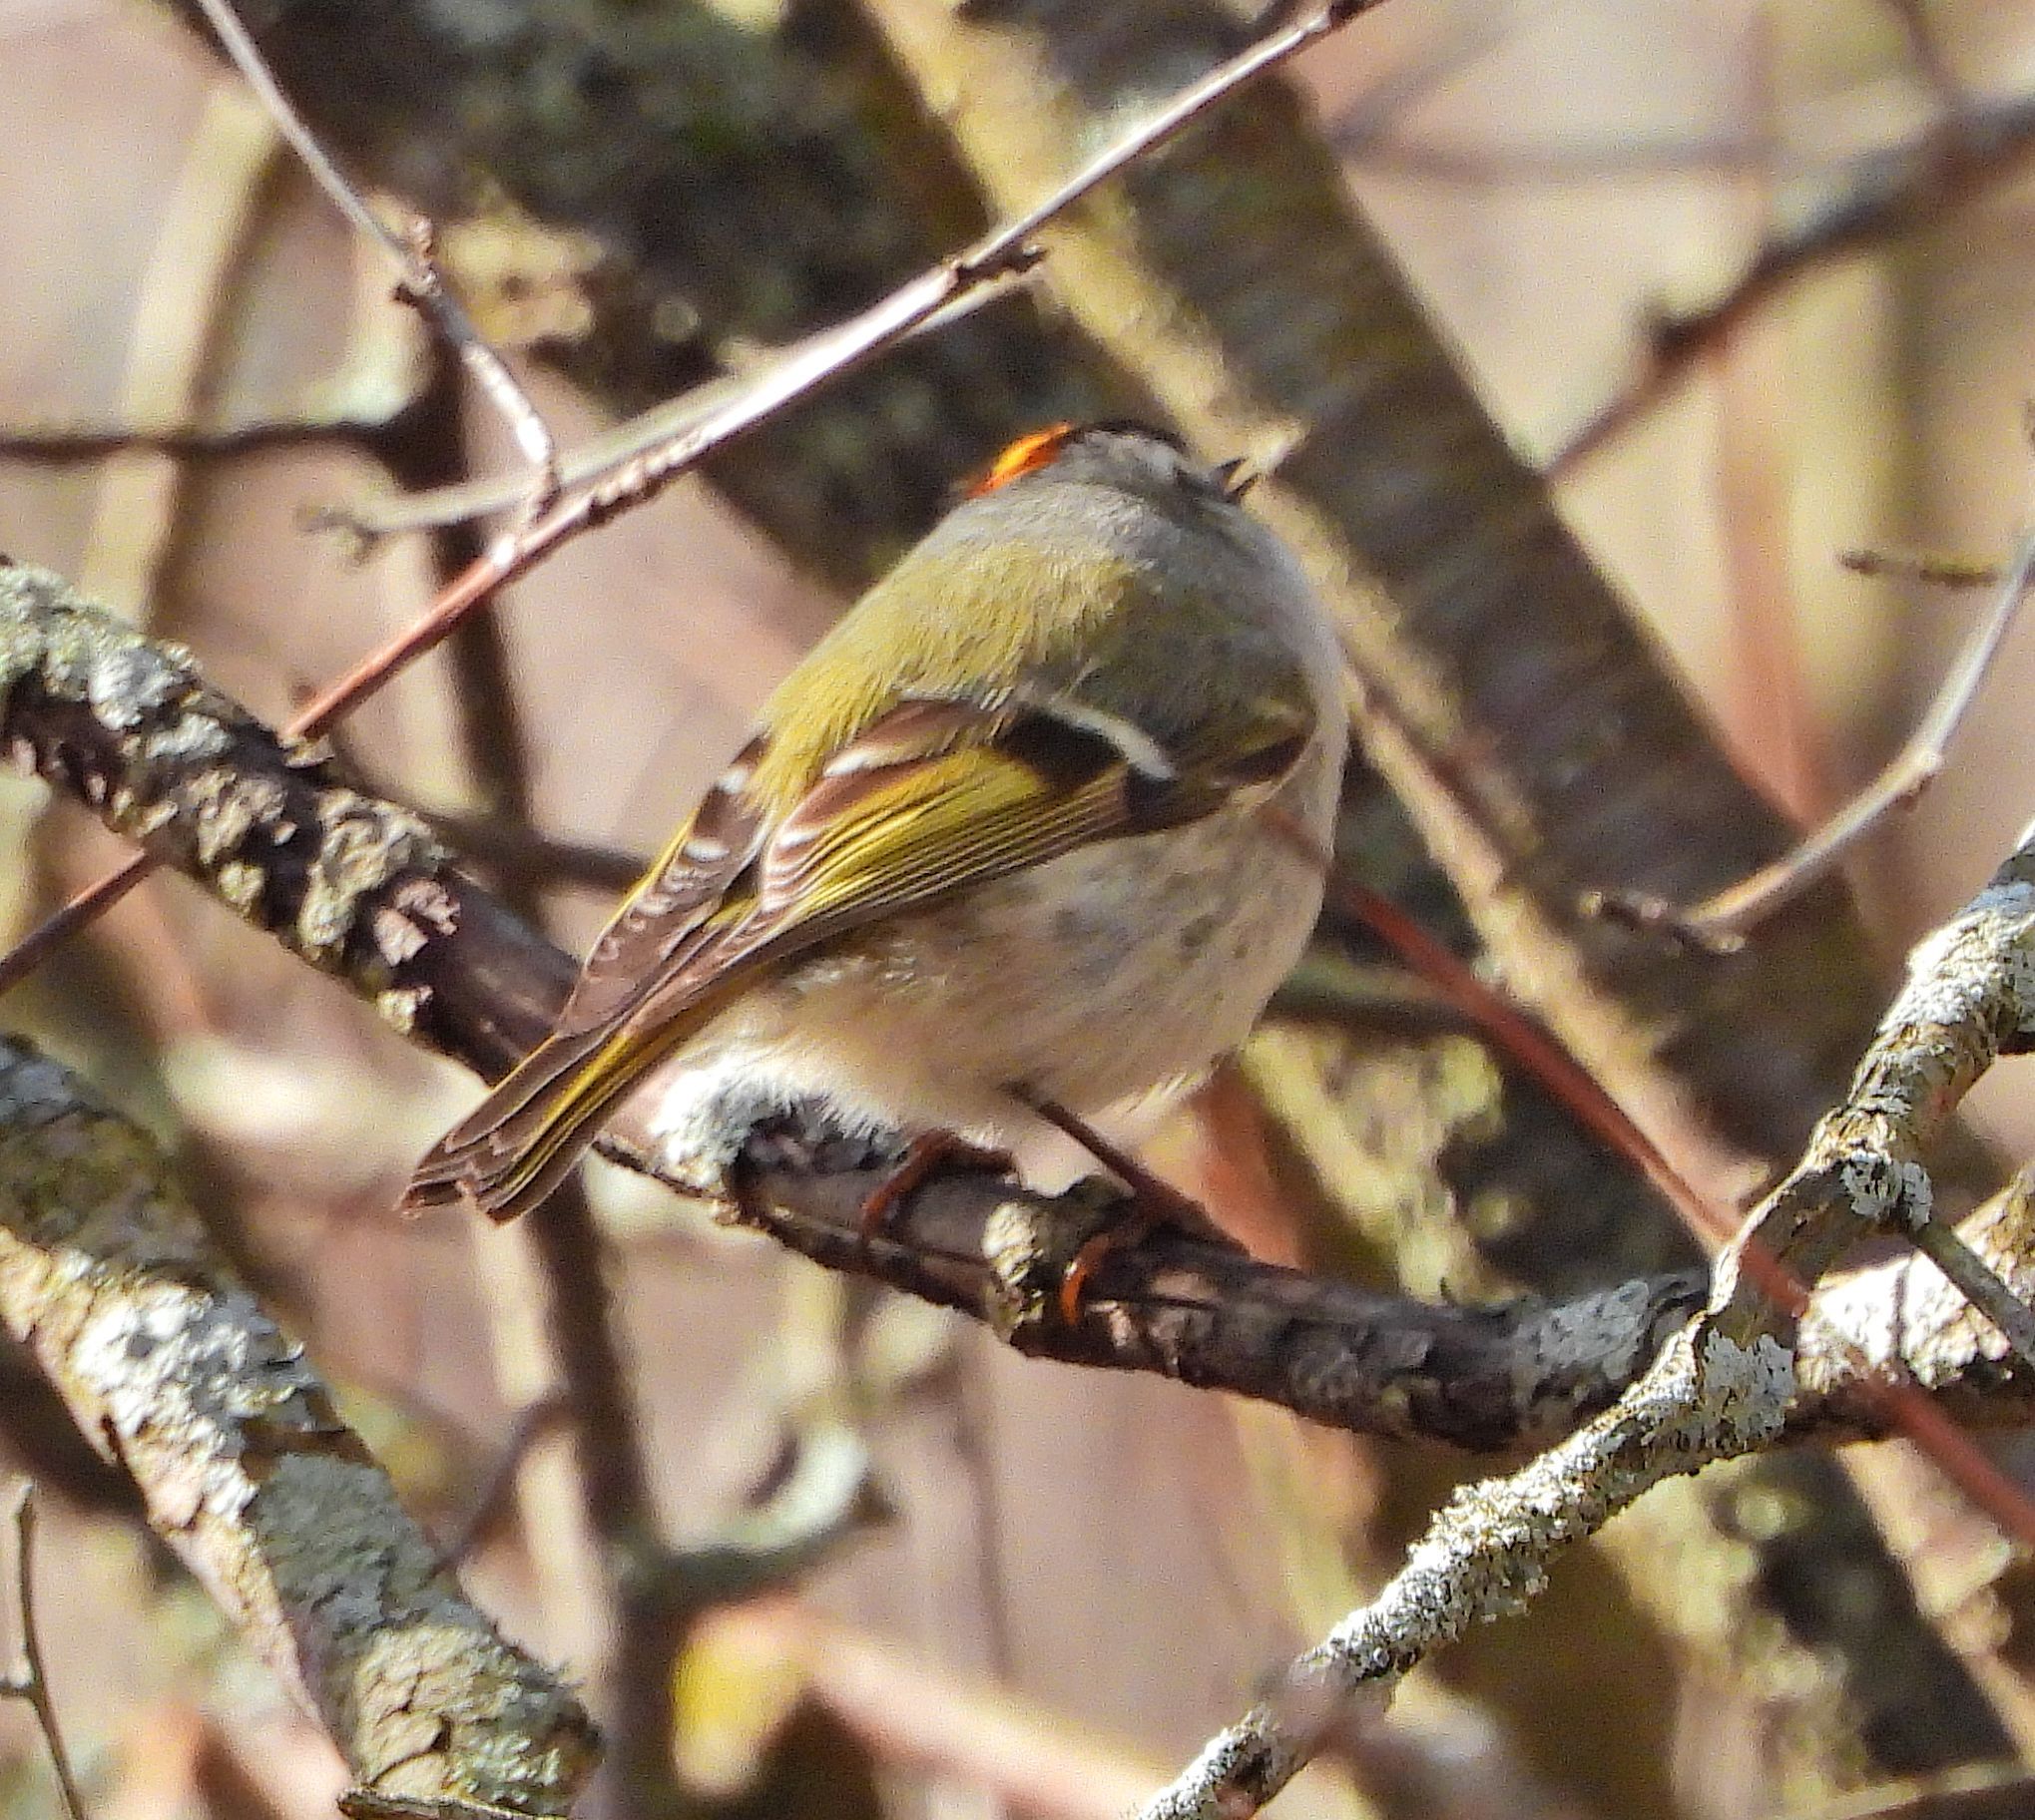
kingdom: Animalia
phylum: Chordata
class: Aves
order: Passeriformes
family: Regulidae
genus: Regulus
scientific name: Regulus satrapa
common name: Golden-crowned kinglet
